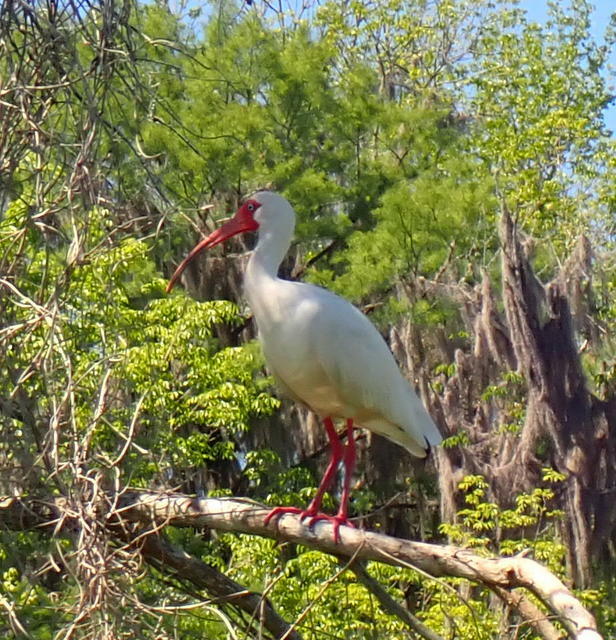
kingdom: Animalia
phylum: Chordata
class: Aves
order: Pelecaniformes
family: Threskiornithidae
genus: Eudocimus
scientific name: Eudocimus albus
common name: White ibis
